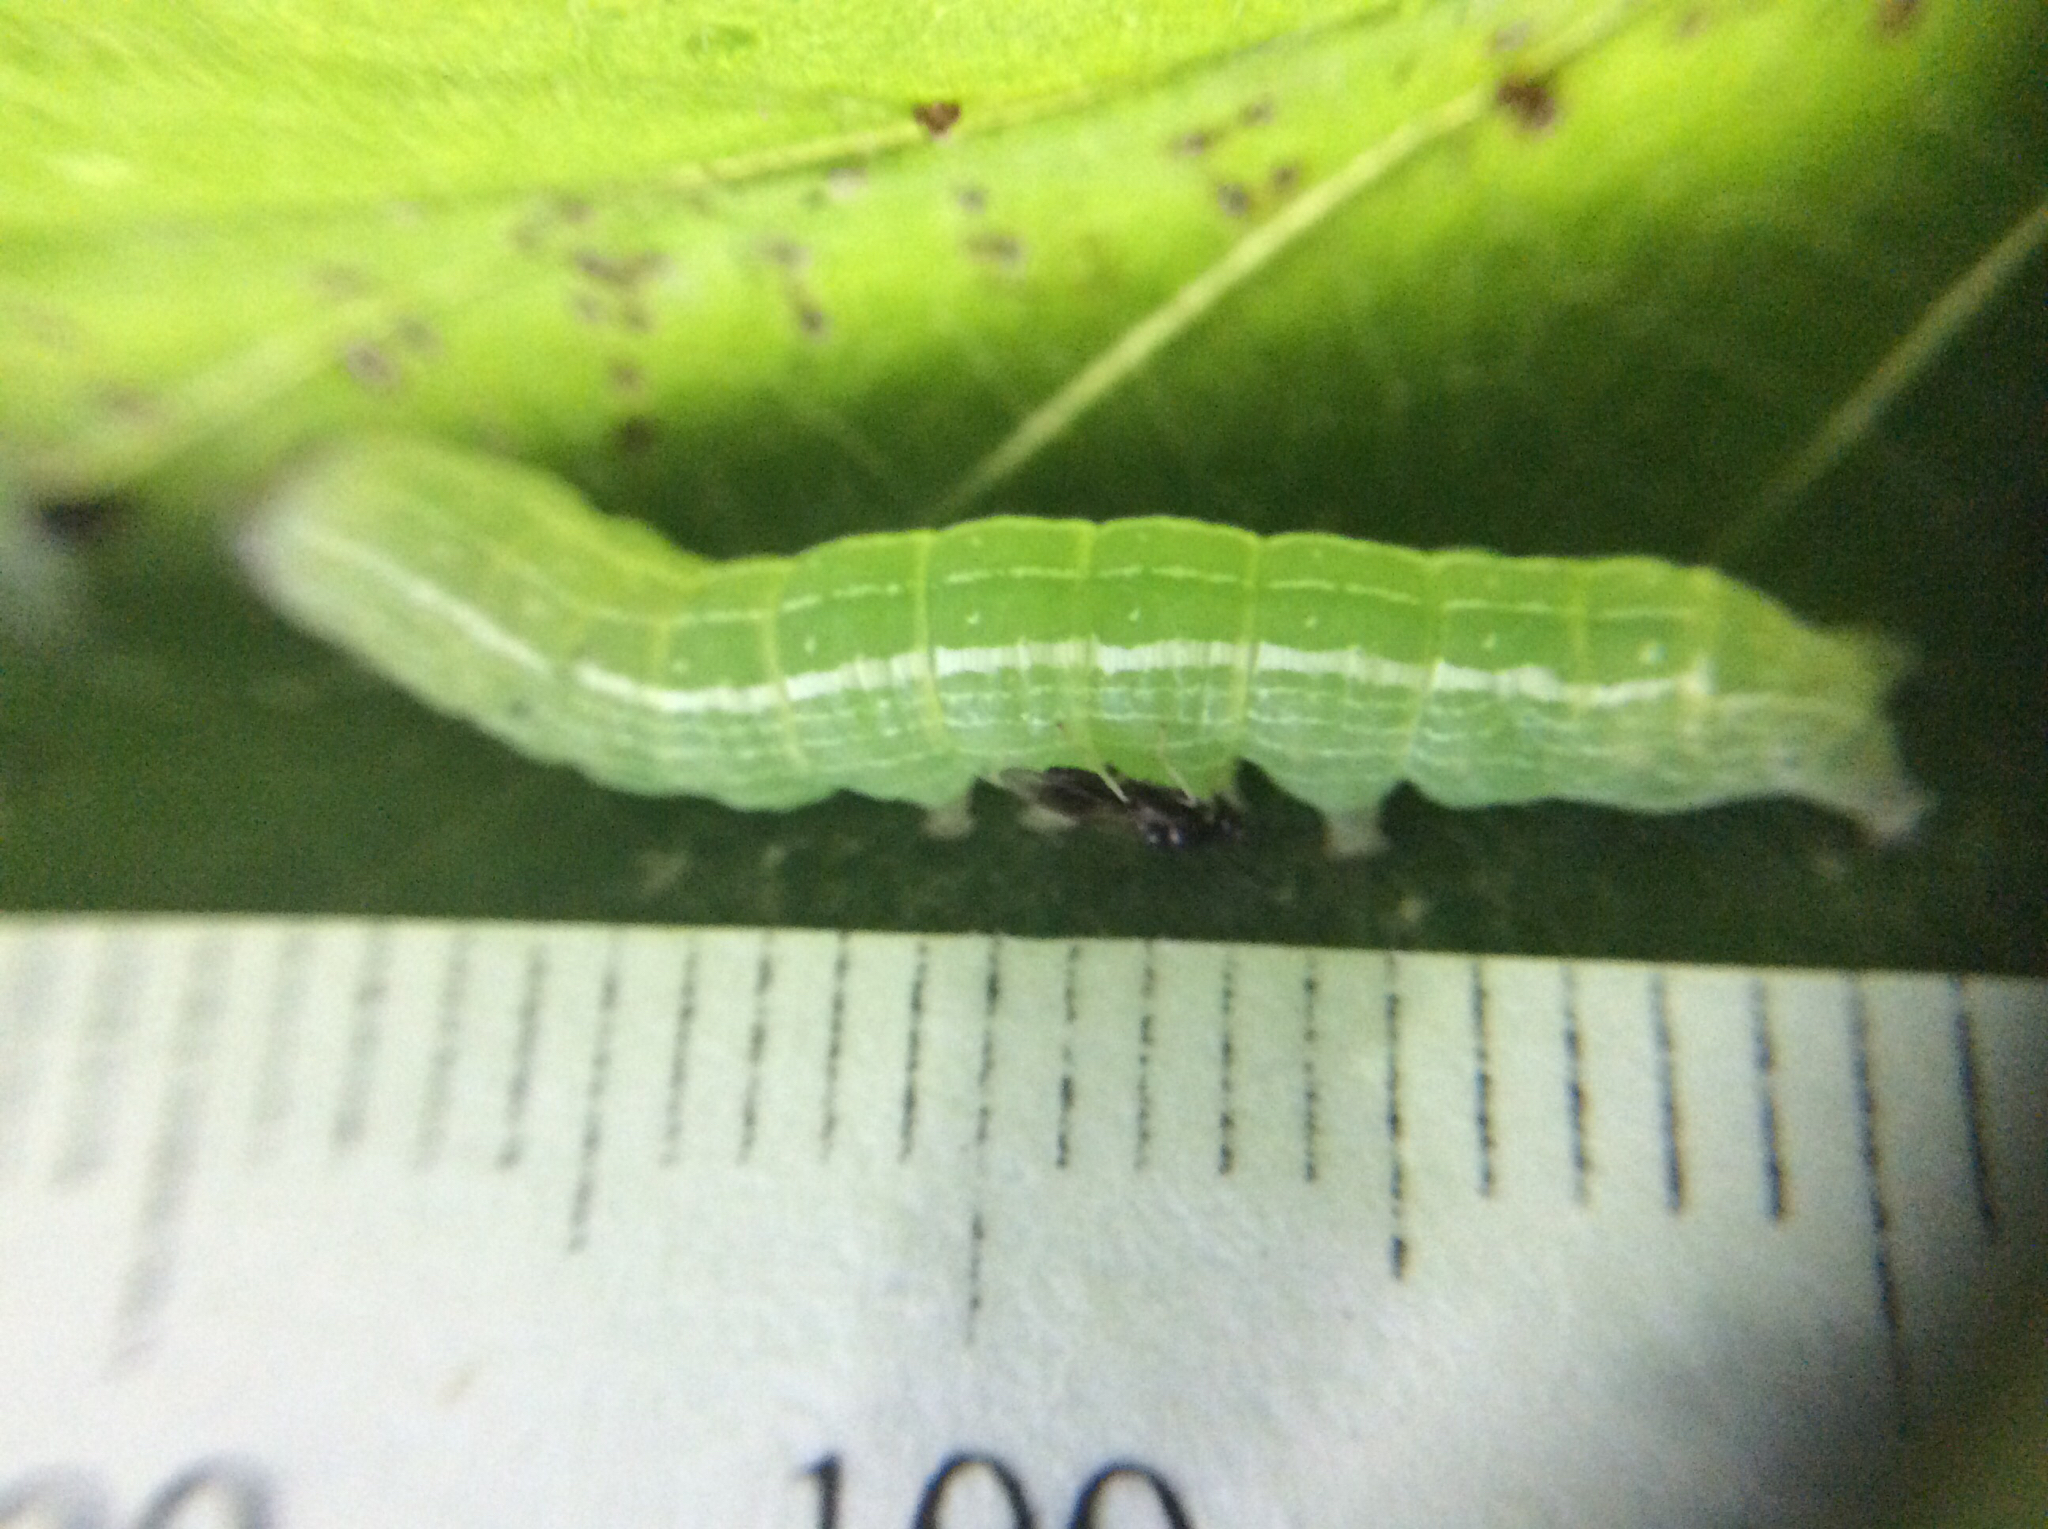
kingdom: Animalia
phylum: Arthropoda
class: Insecta
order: Lepidoptera
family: Noctuidae
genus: Kocakina
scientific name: Kocakina fidelis
